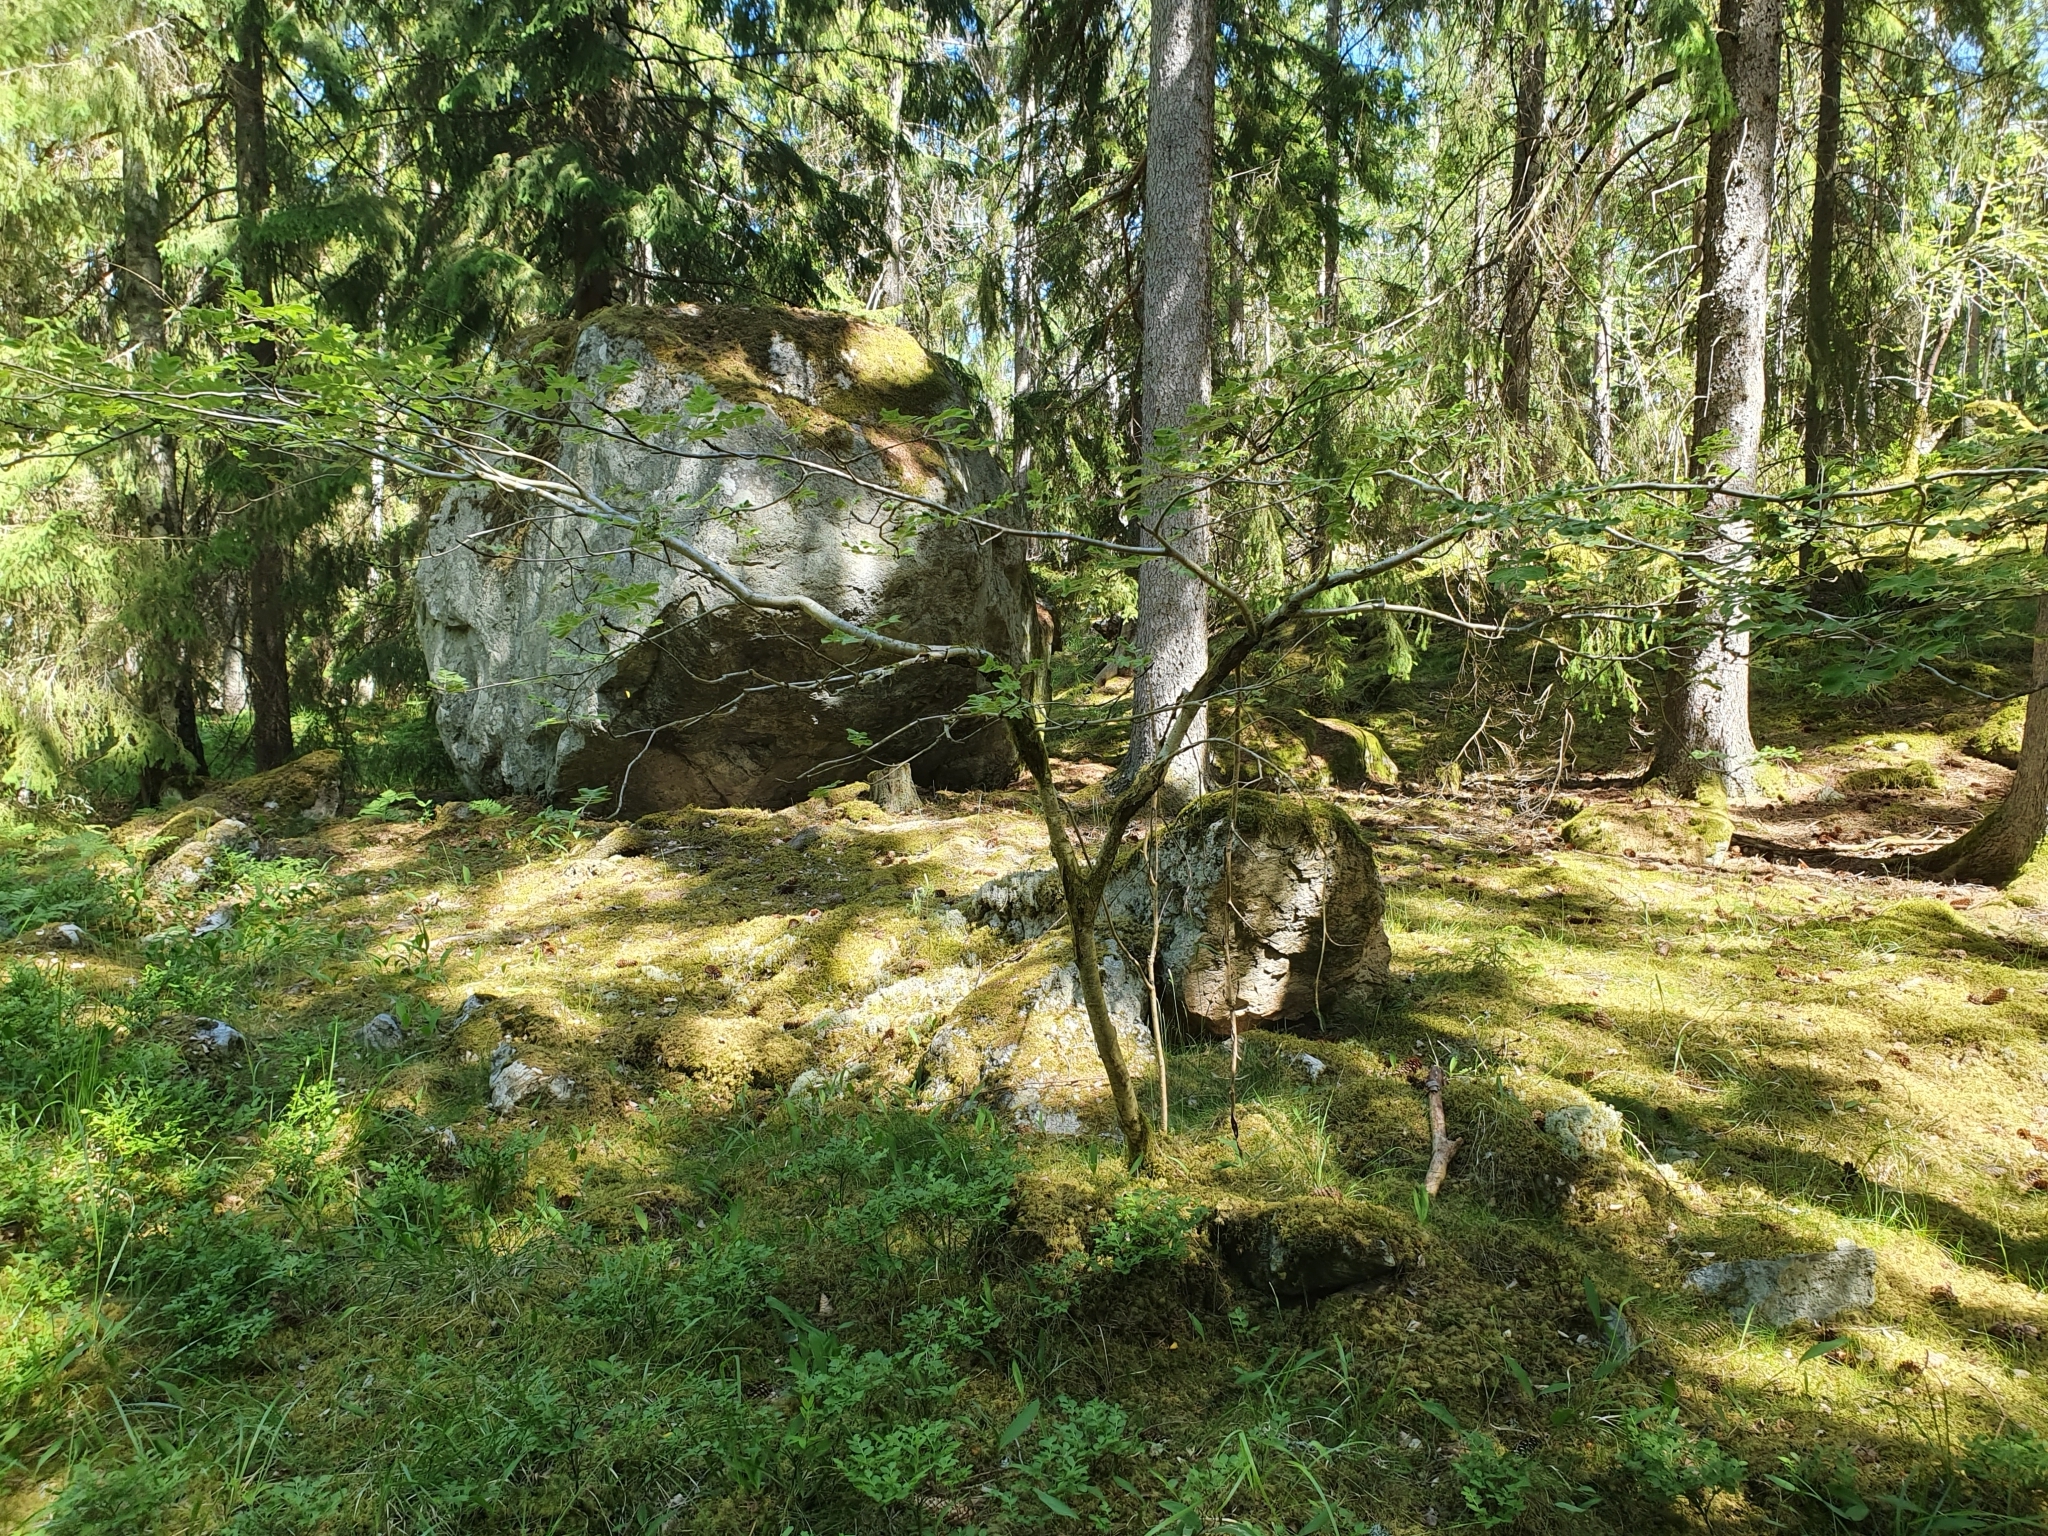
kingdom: Plantae
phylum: Tracheophyta
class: Magnoliopsida
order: Rosales
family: Rosaceae
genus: Sorbus
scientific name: Sorbus aucuparia
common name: Rowan
